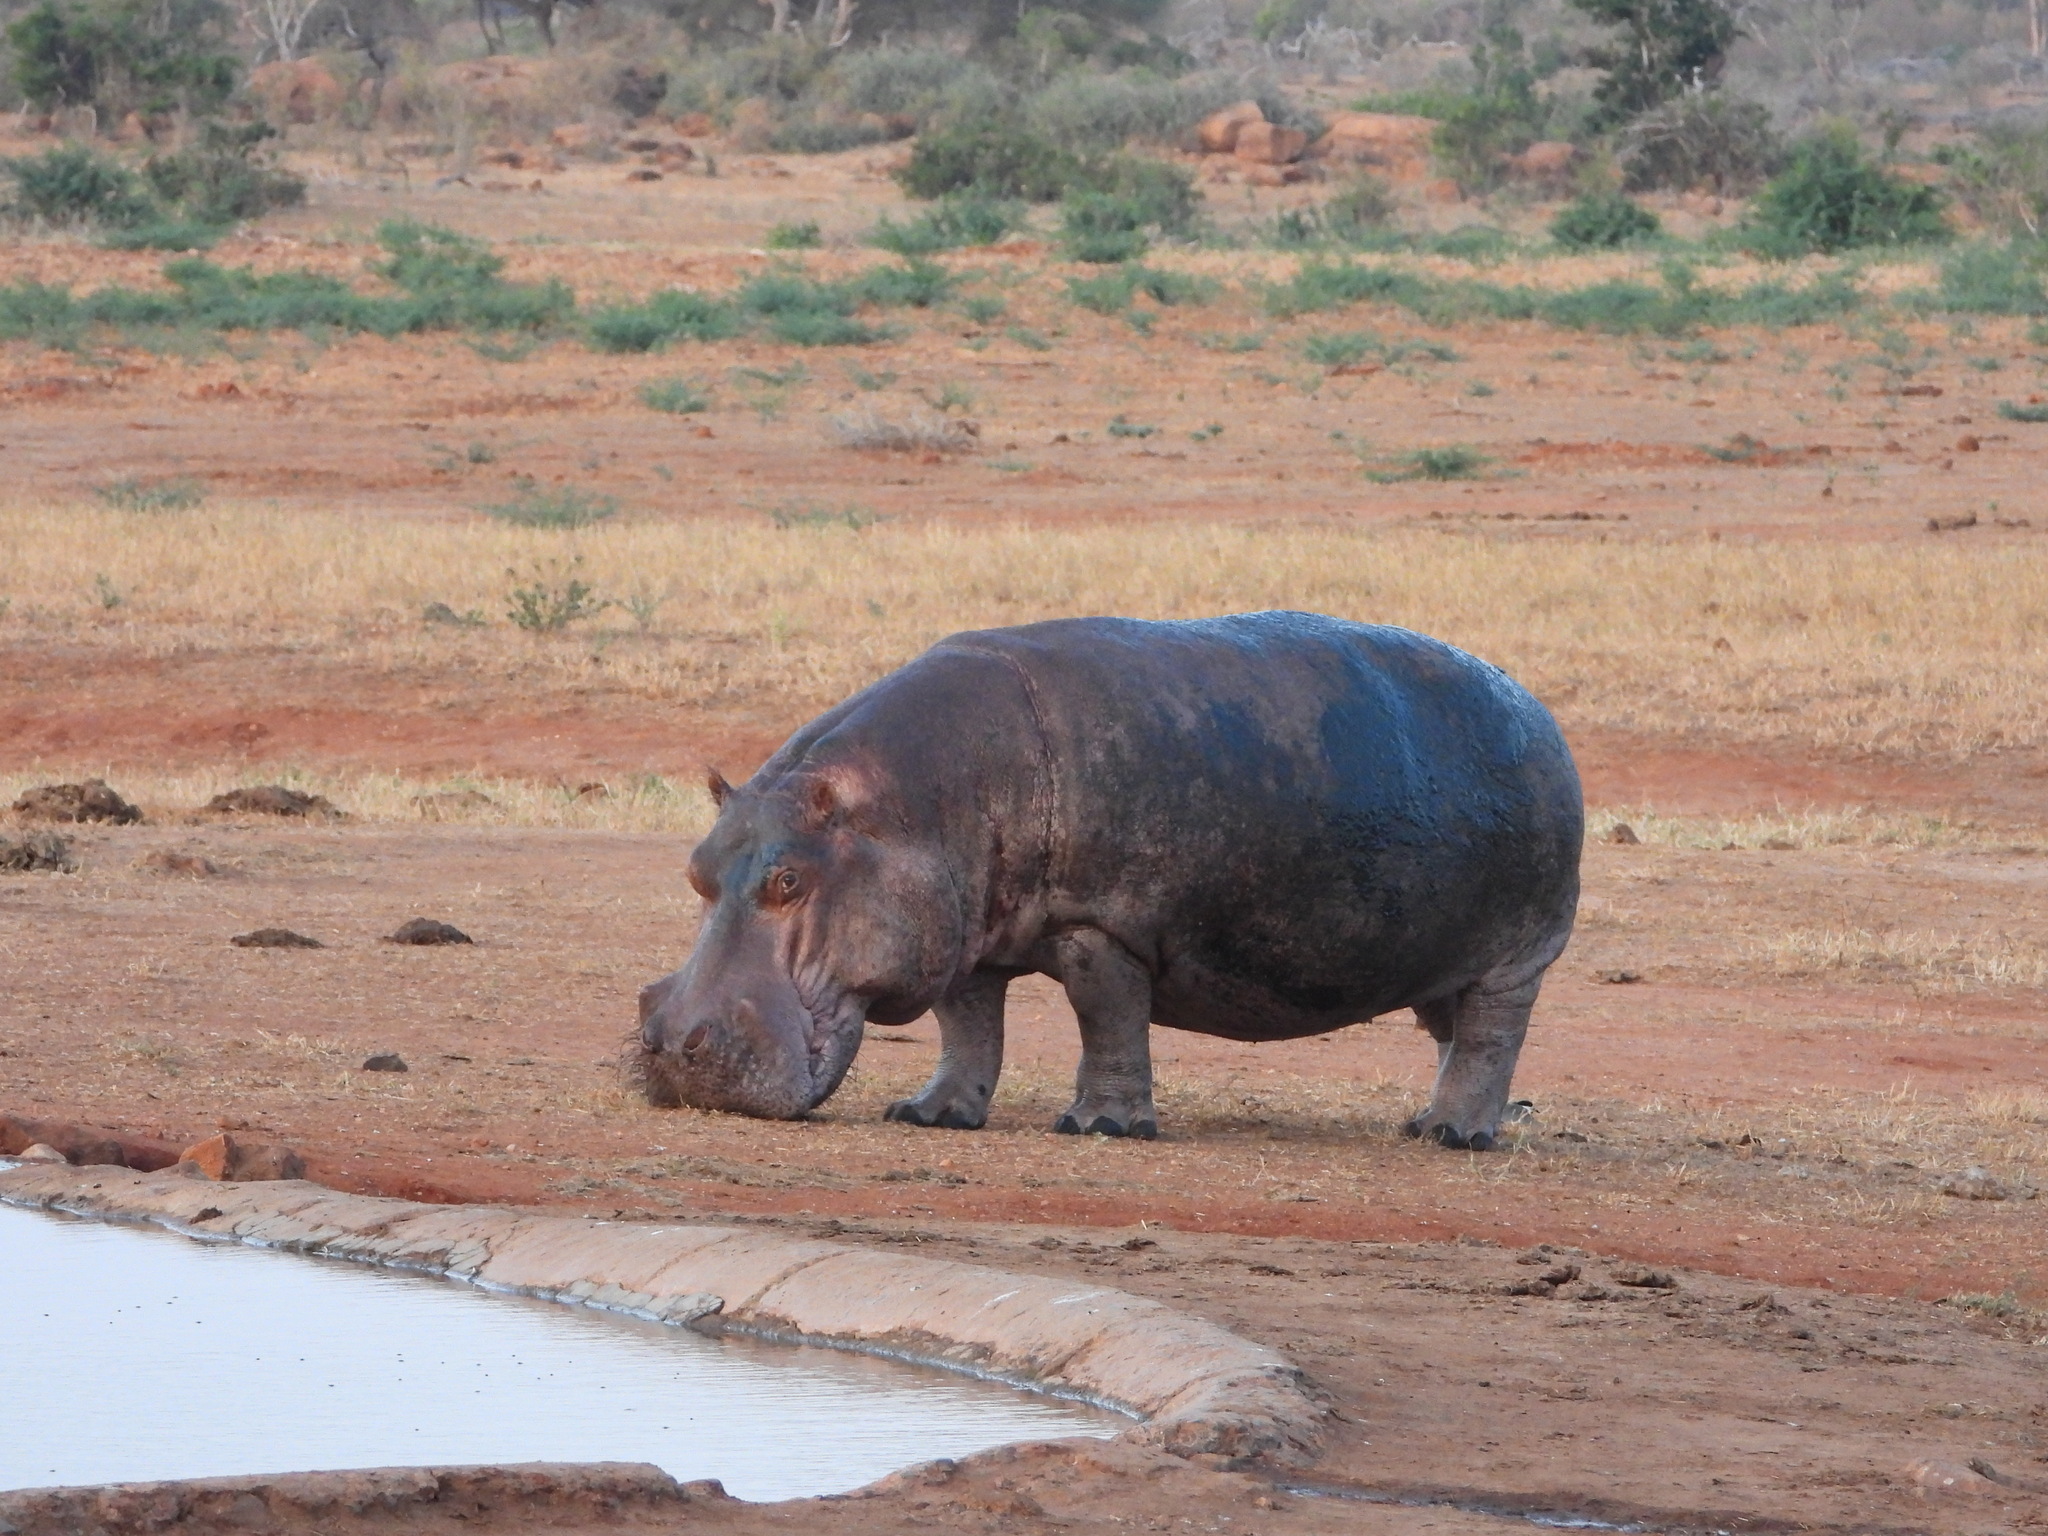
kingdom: Animalia
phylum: Chordata
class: Mammalia
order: Artiodactyla
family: Hippopotamidae
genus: Hippopotamus
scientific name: Hippopotamus amphibius
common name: Common hippopotamus
